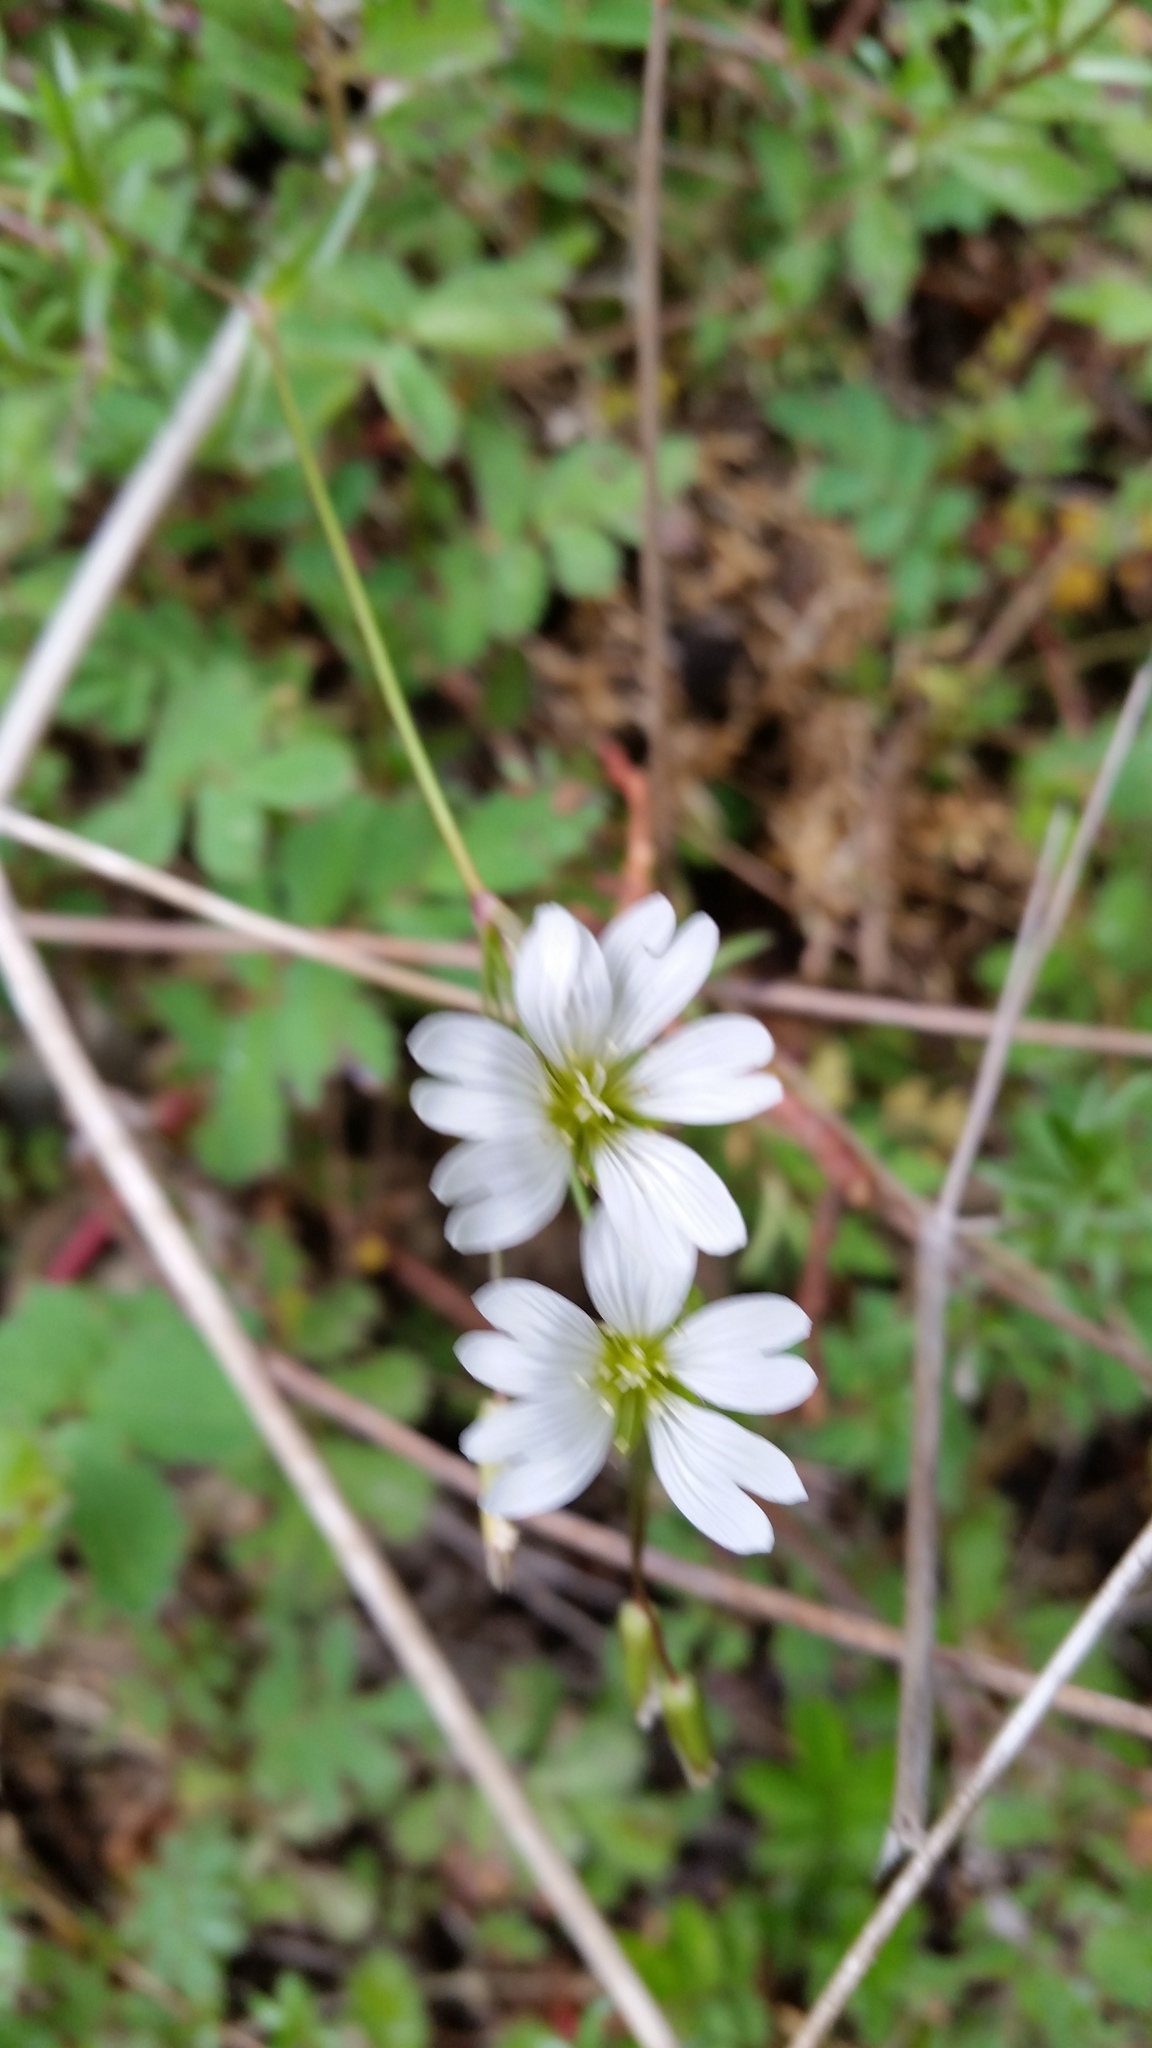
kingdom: Plantae
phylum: Tracheophyta
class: Magnoliopsida
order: Caryophyllales
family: Caryophyllaceae
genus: Cerastium
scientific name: Cerastium arvense
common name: Field mouse-ear
